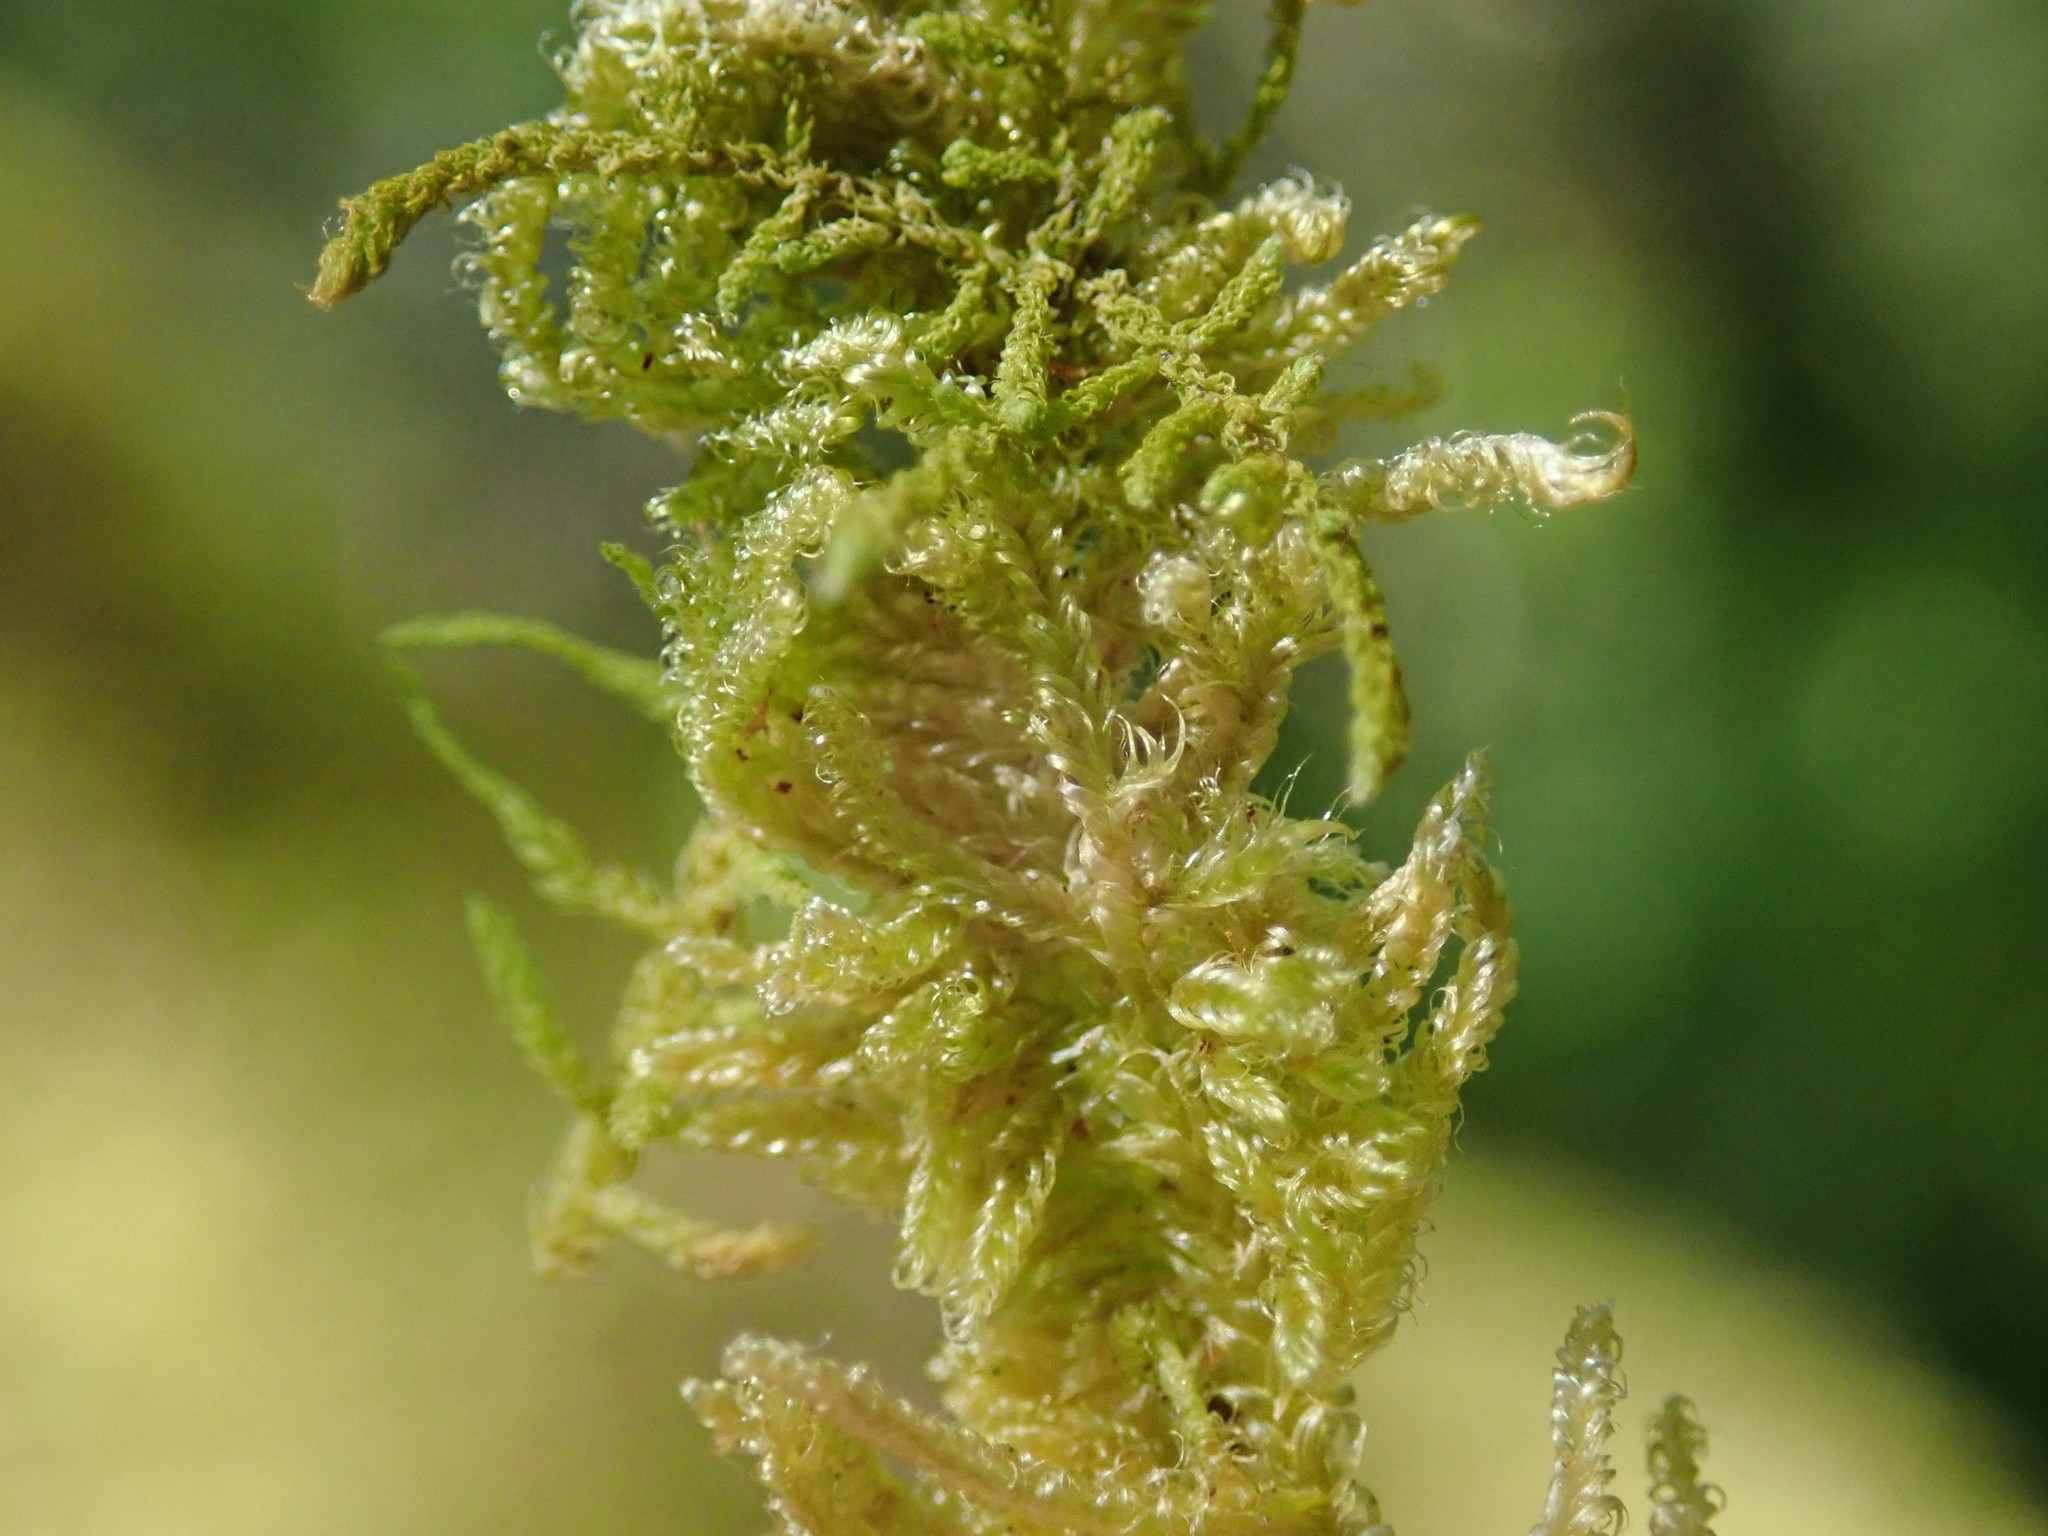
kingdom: Plantae
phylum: Bryophyta
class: Bryopsida
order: Hypnales
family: Stereodontaceae
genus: Stereodon
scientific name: Stereodon subimponens
